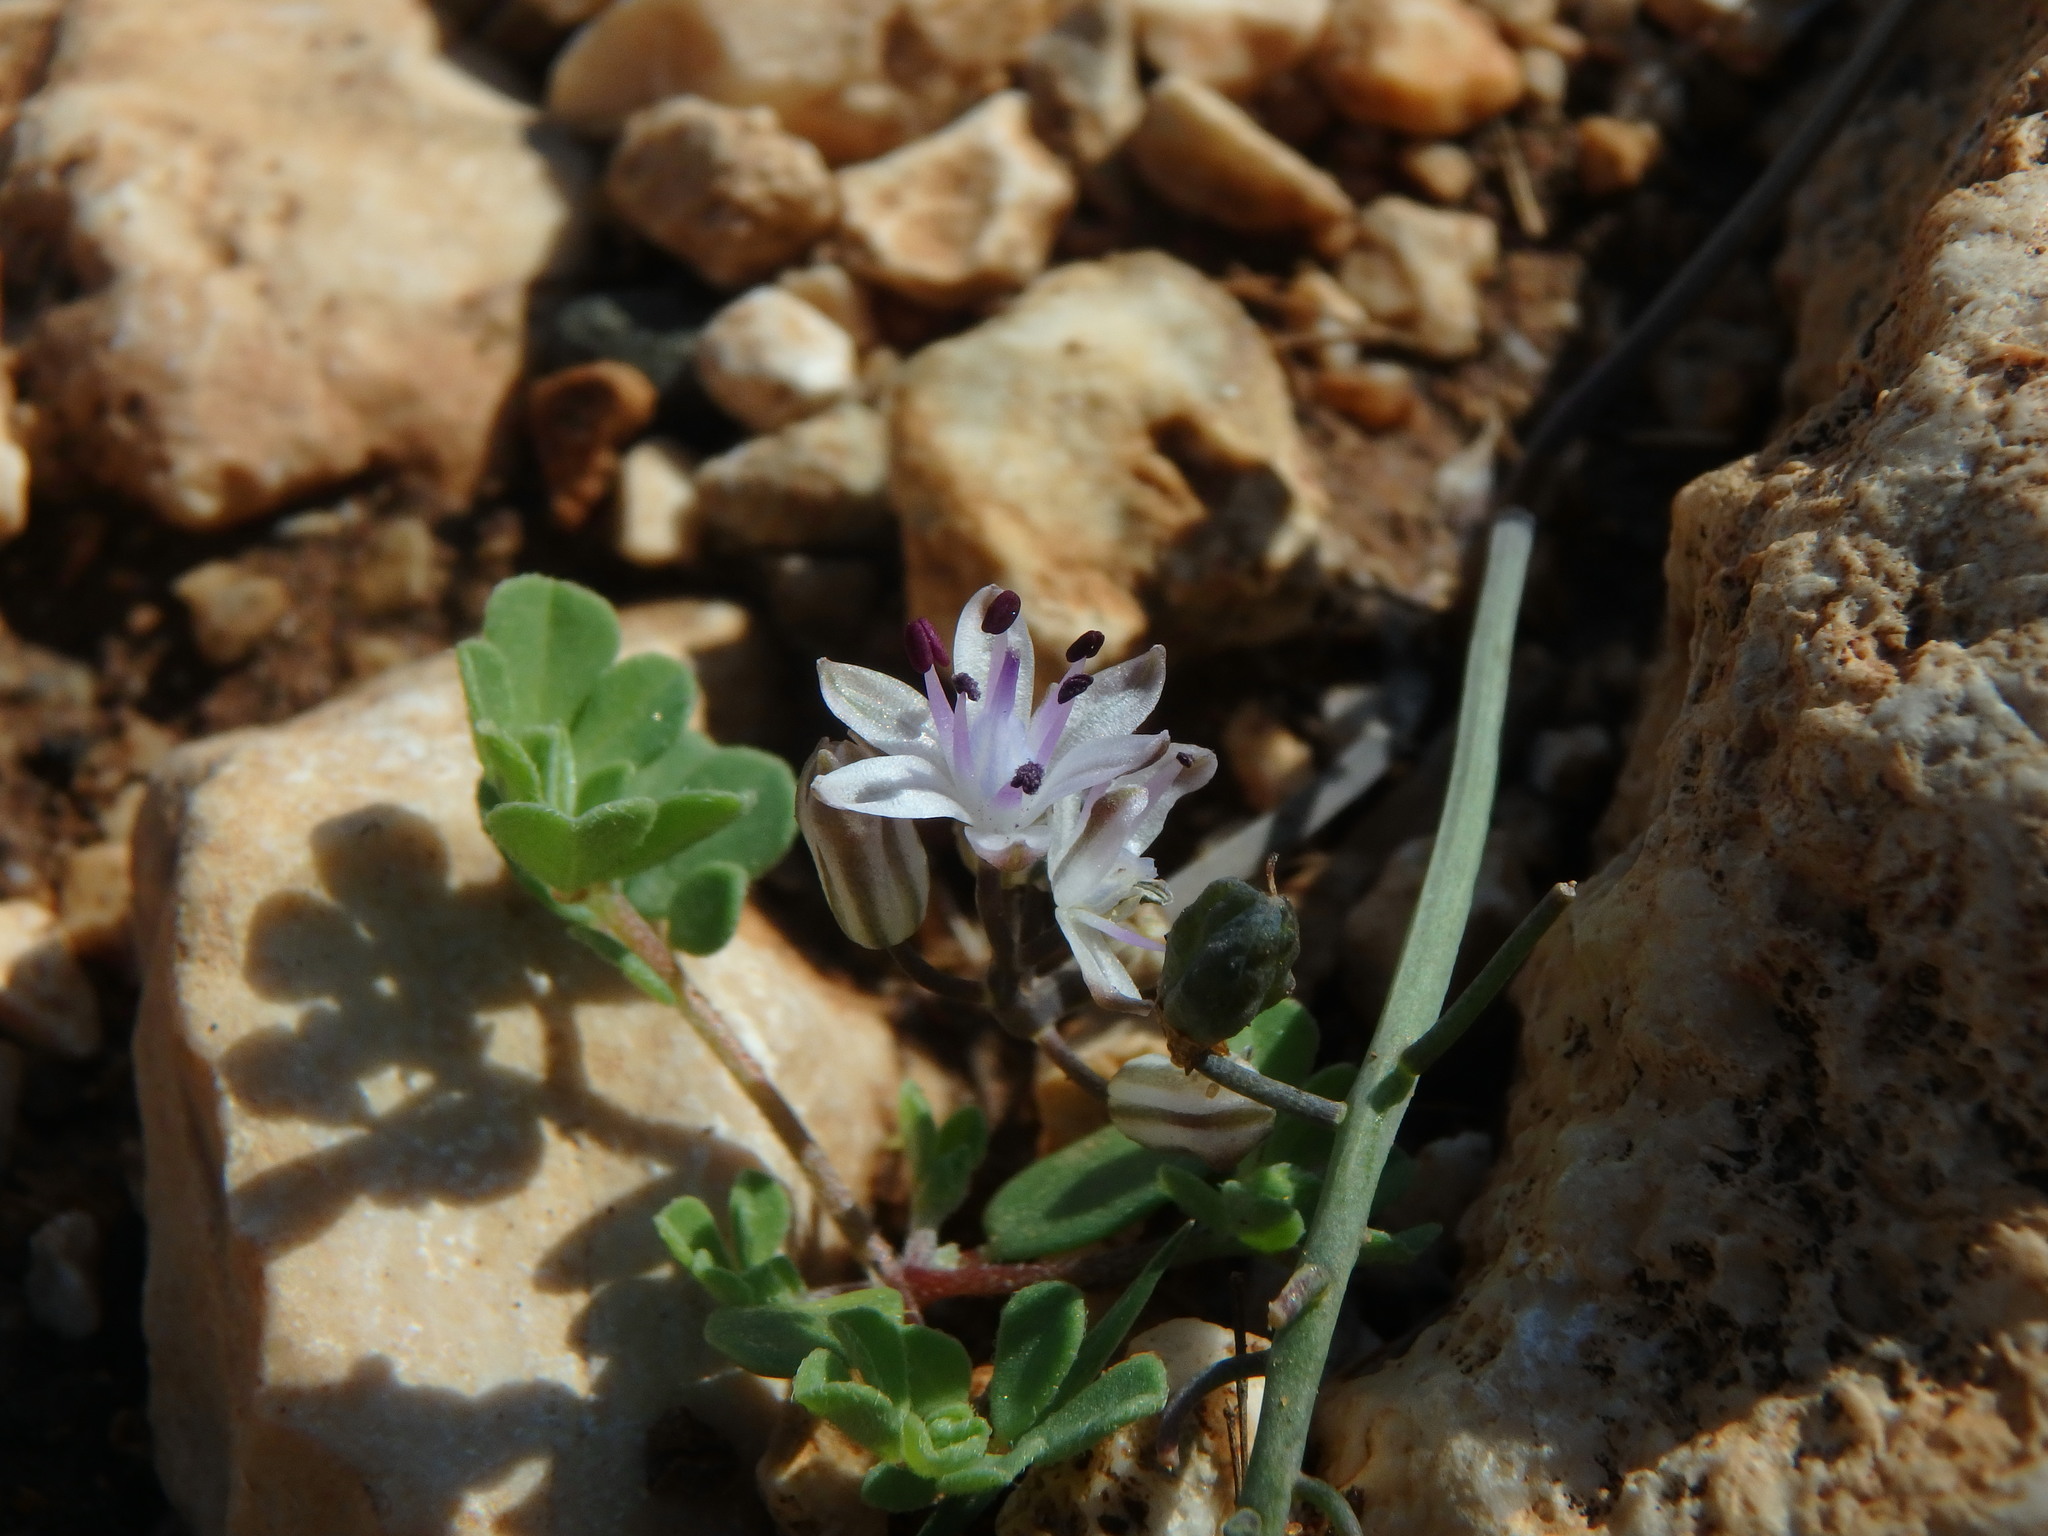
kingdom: Plantae
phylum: Tracheophyta
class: Liliopsida
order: Asparagales
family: Asparagaceae
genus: Prospero
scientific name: Prospero autumnale
